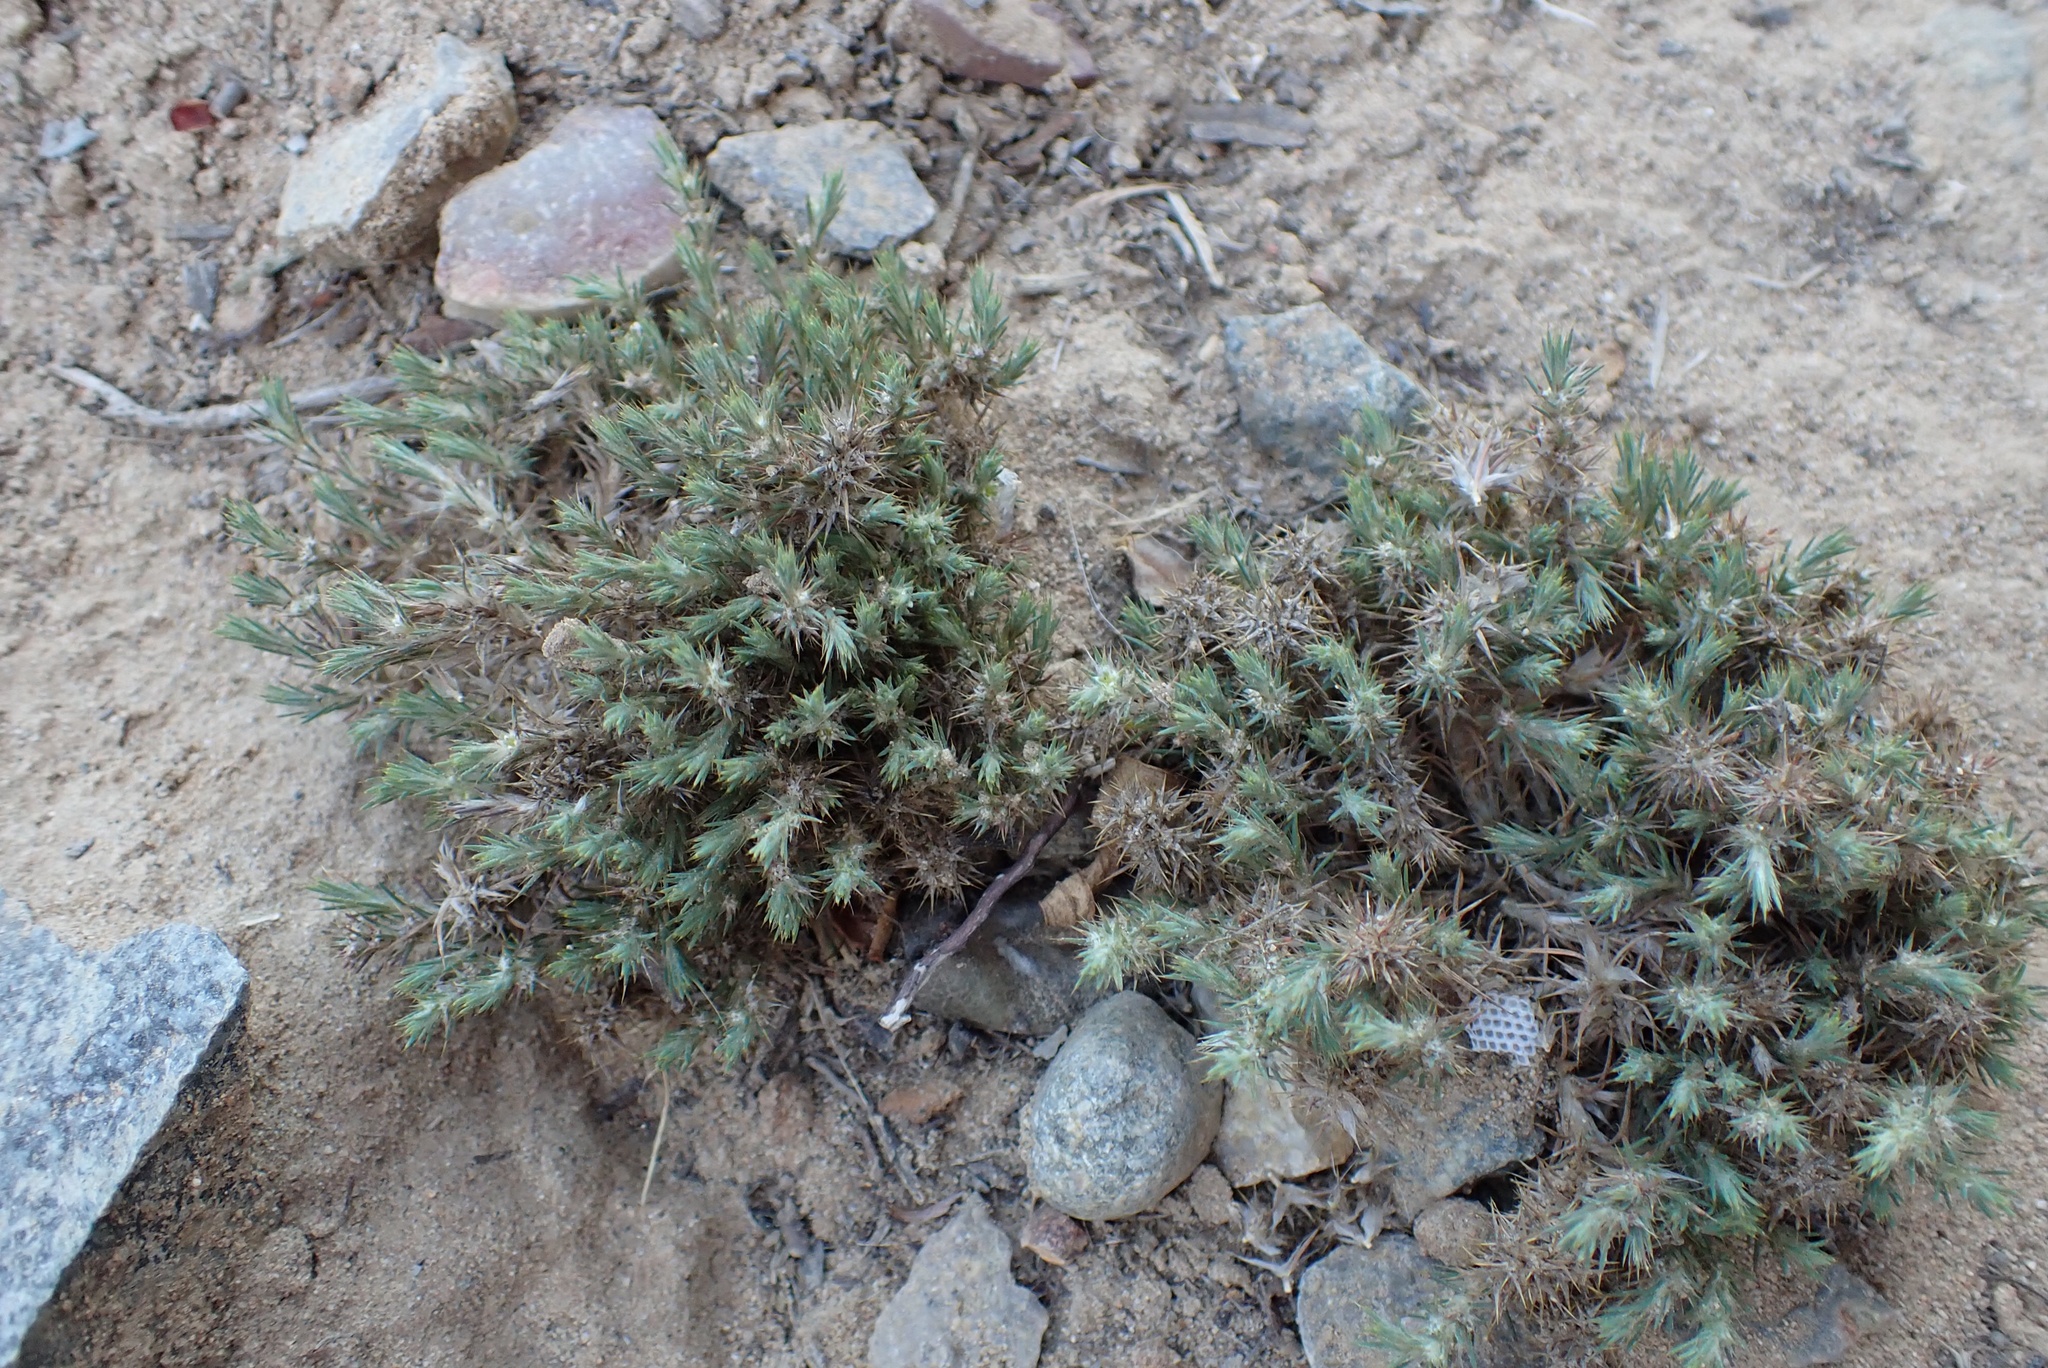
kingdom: Plantae
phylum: Tracheophyta
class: Magnoliopsida
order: Caryophyllales
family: Caryophyllaceae
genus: Cardionema
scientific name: Cardionema ramosissima
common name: Sandcarpet
